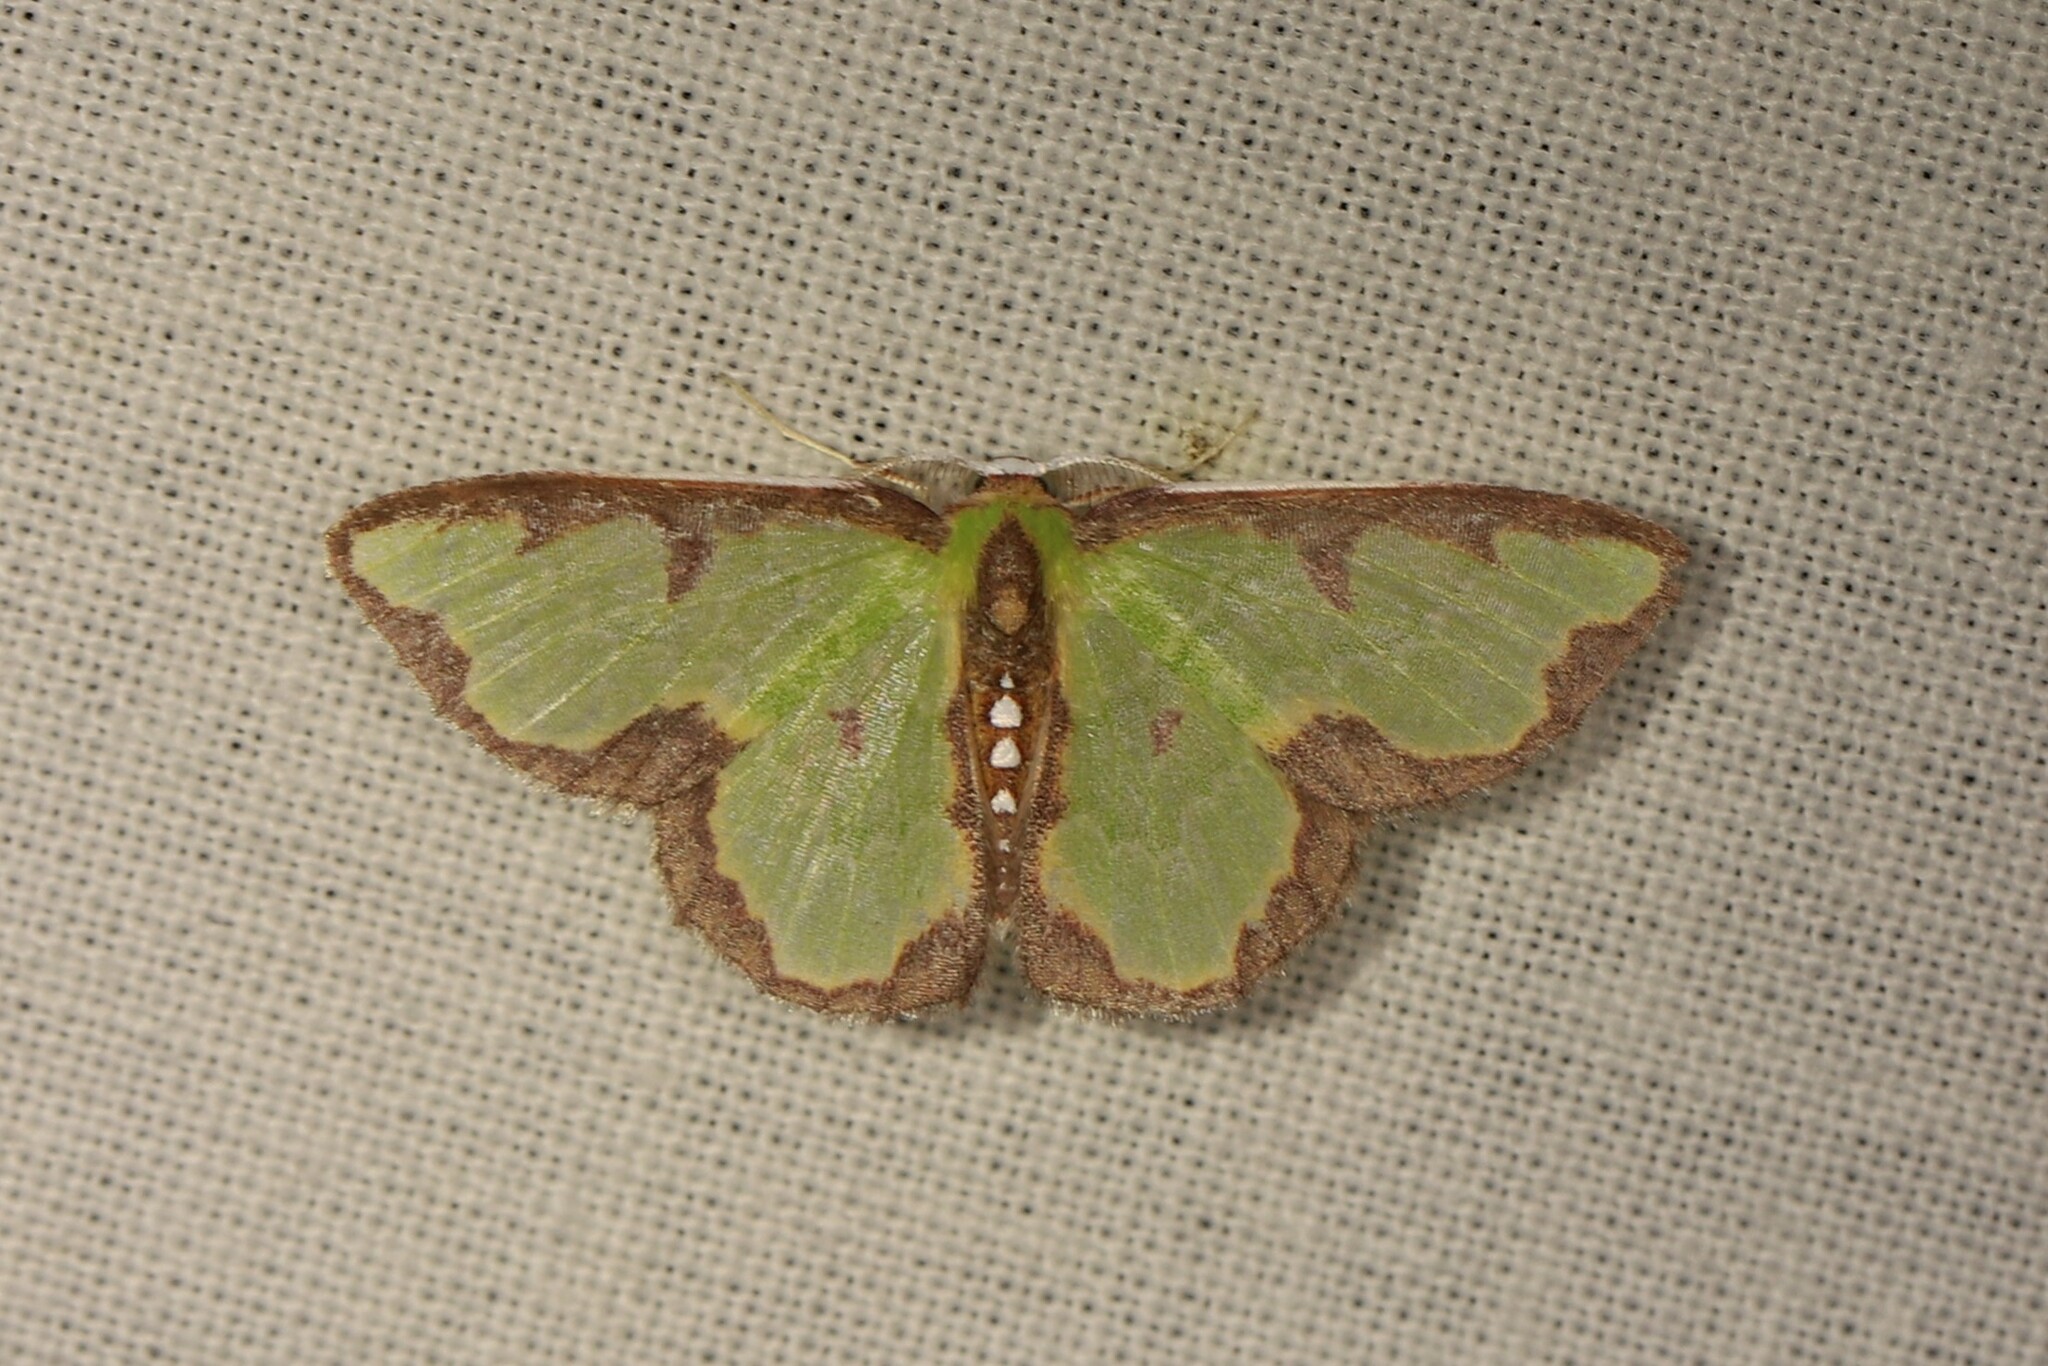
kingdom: Animalia
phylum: Arthropoda
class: Insecta
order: Lepidoptera
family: Geometridae
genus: Synchlora
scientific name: Synchlora dependens
